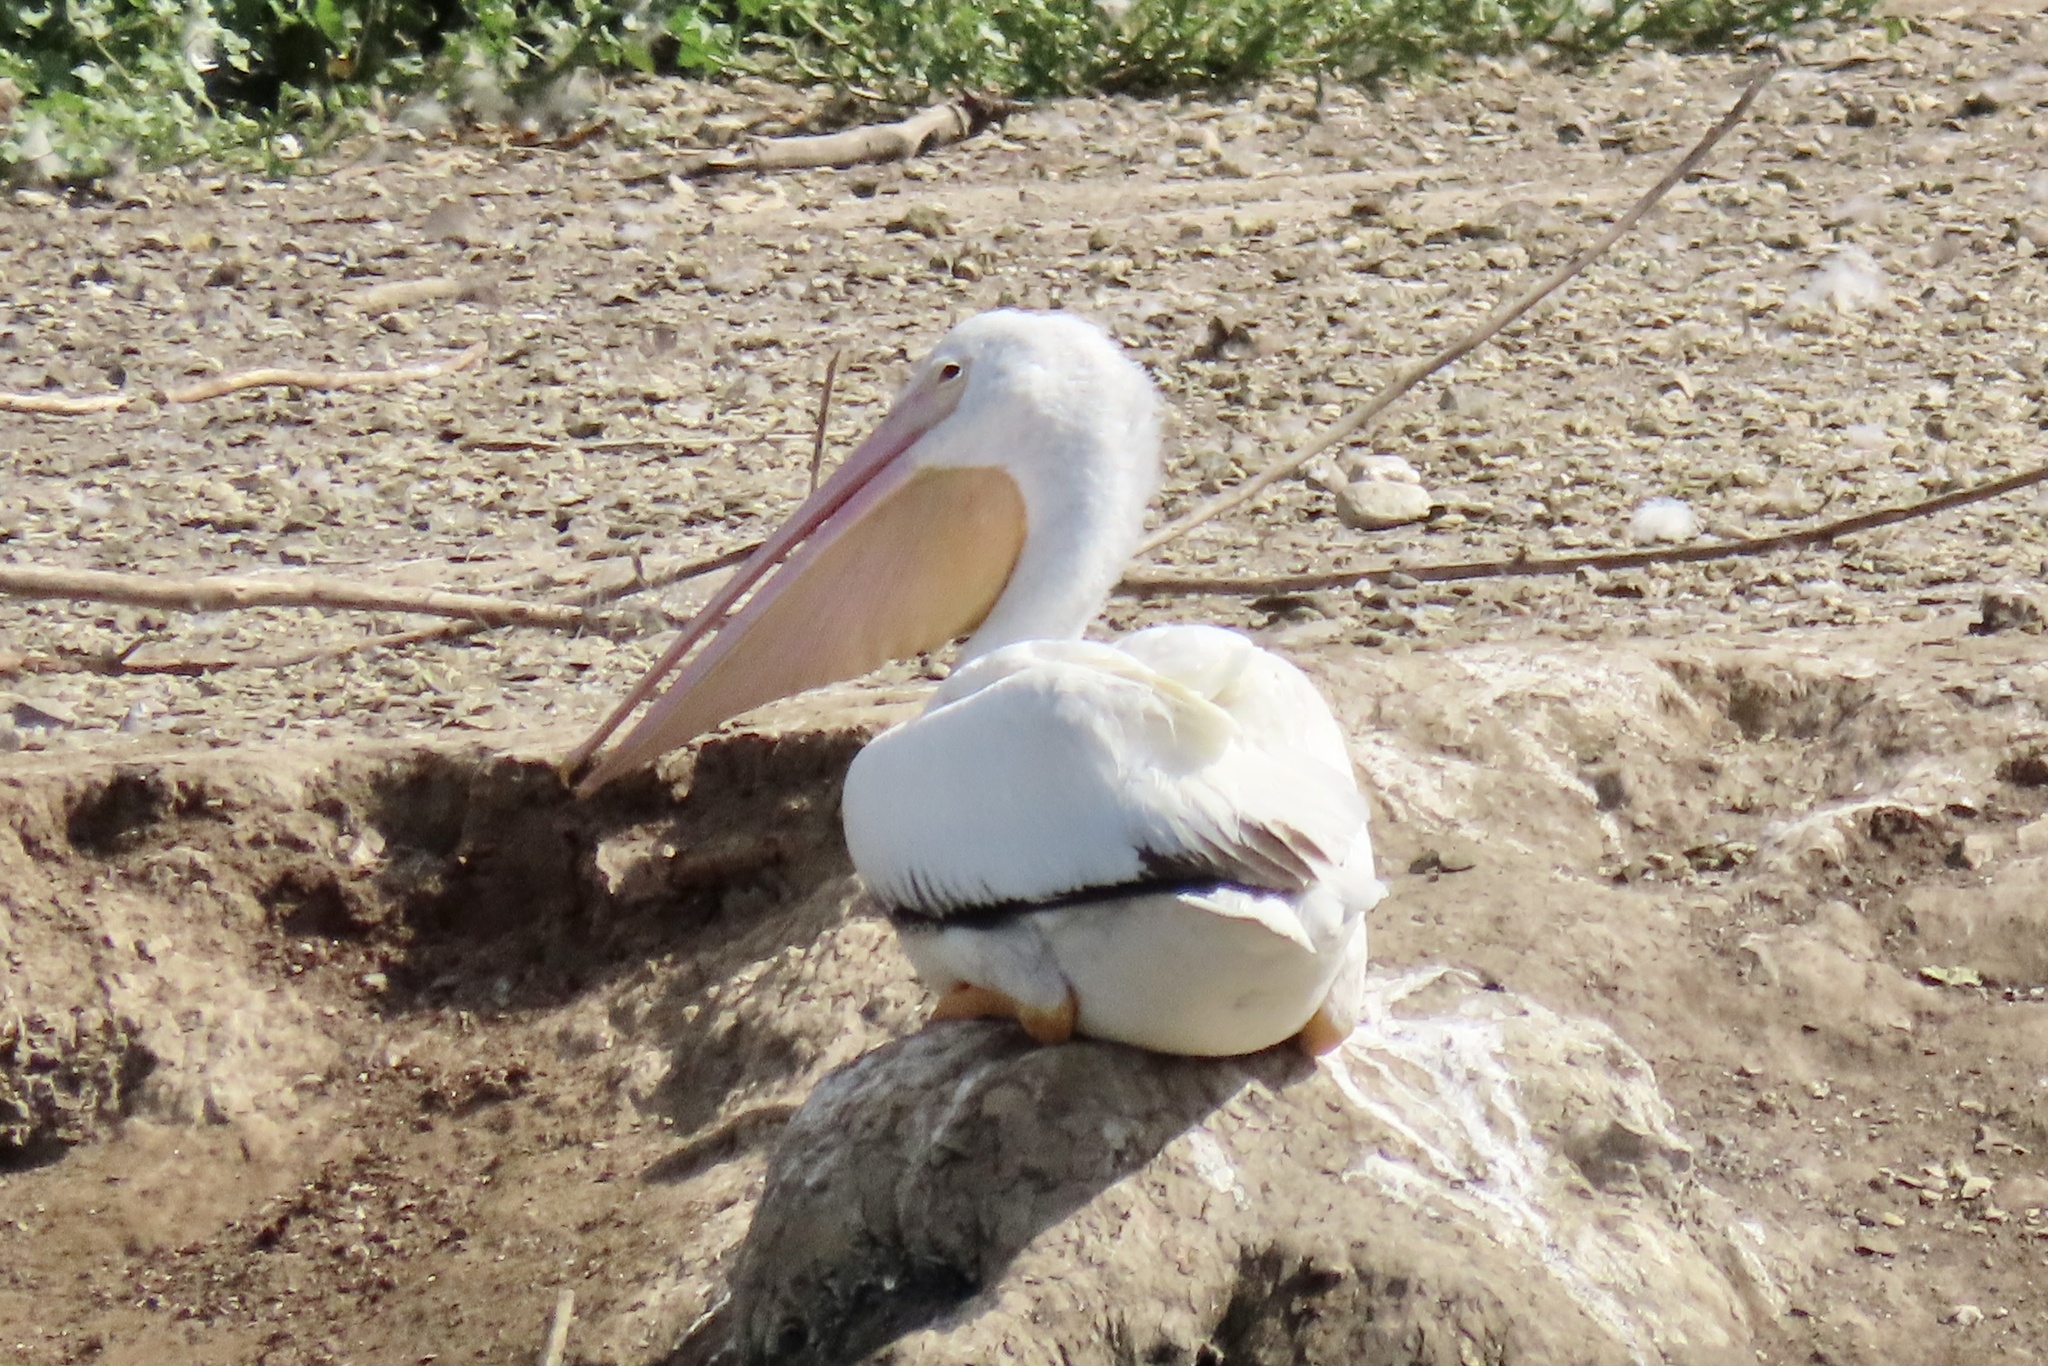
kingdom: Animalia
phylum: Chordata
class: Aves
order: Pelecaniformes
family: Pelecanidae
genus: Pelecanus
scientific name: Pelecanus erythrorhynchos
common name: American white pelican
